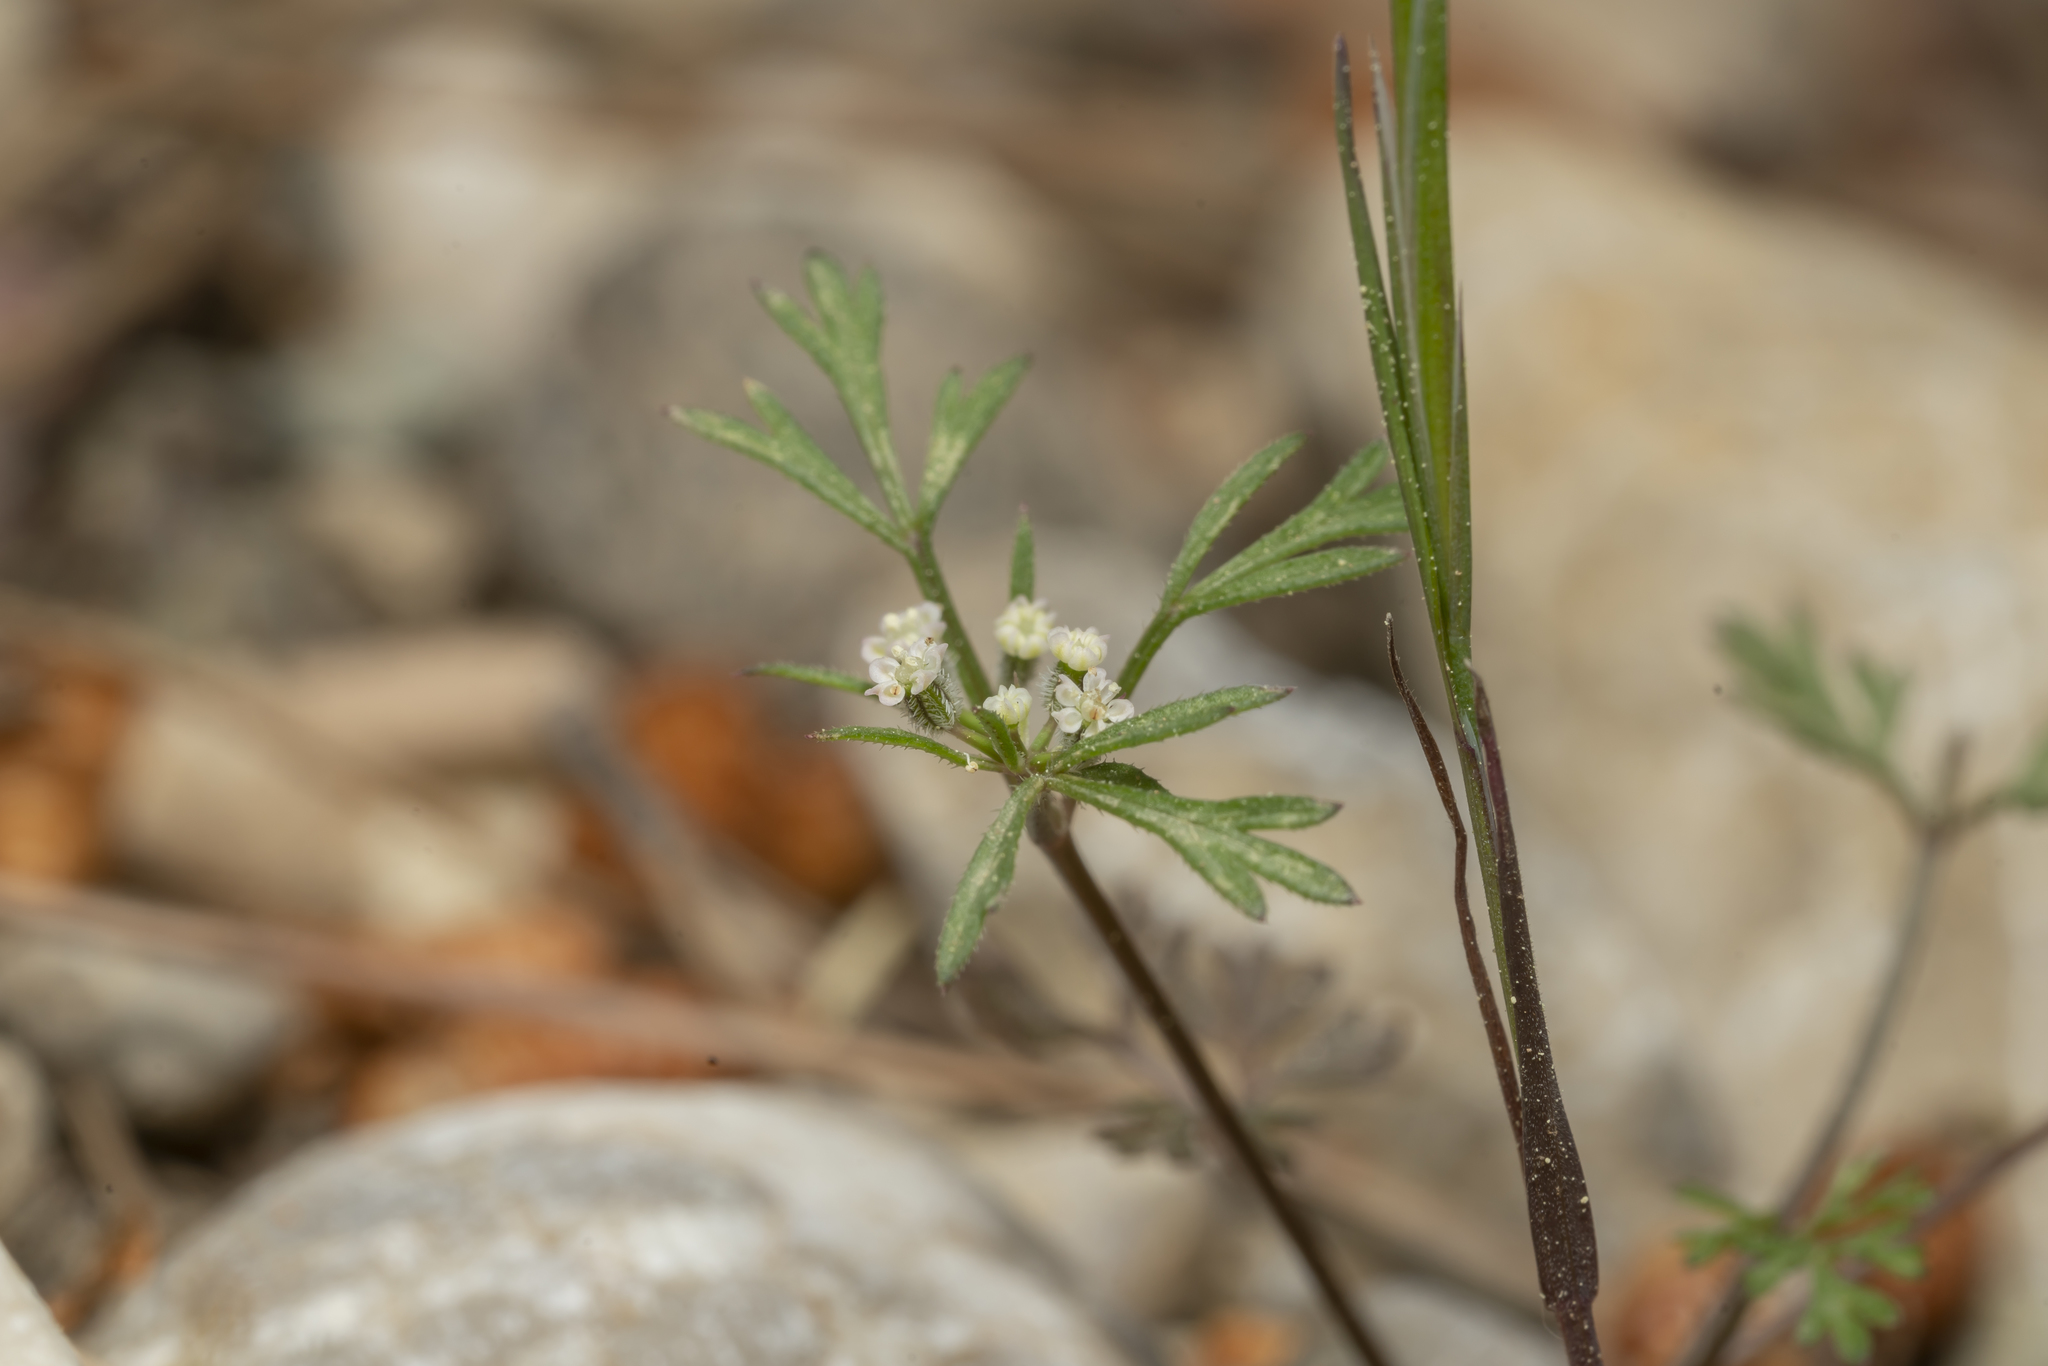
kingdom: Plantae
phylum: Tracheophyta
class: Magnoliopsida
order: Apiales
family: Apiaceae
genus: Daucus
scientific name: Daucus involucratus
